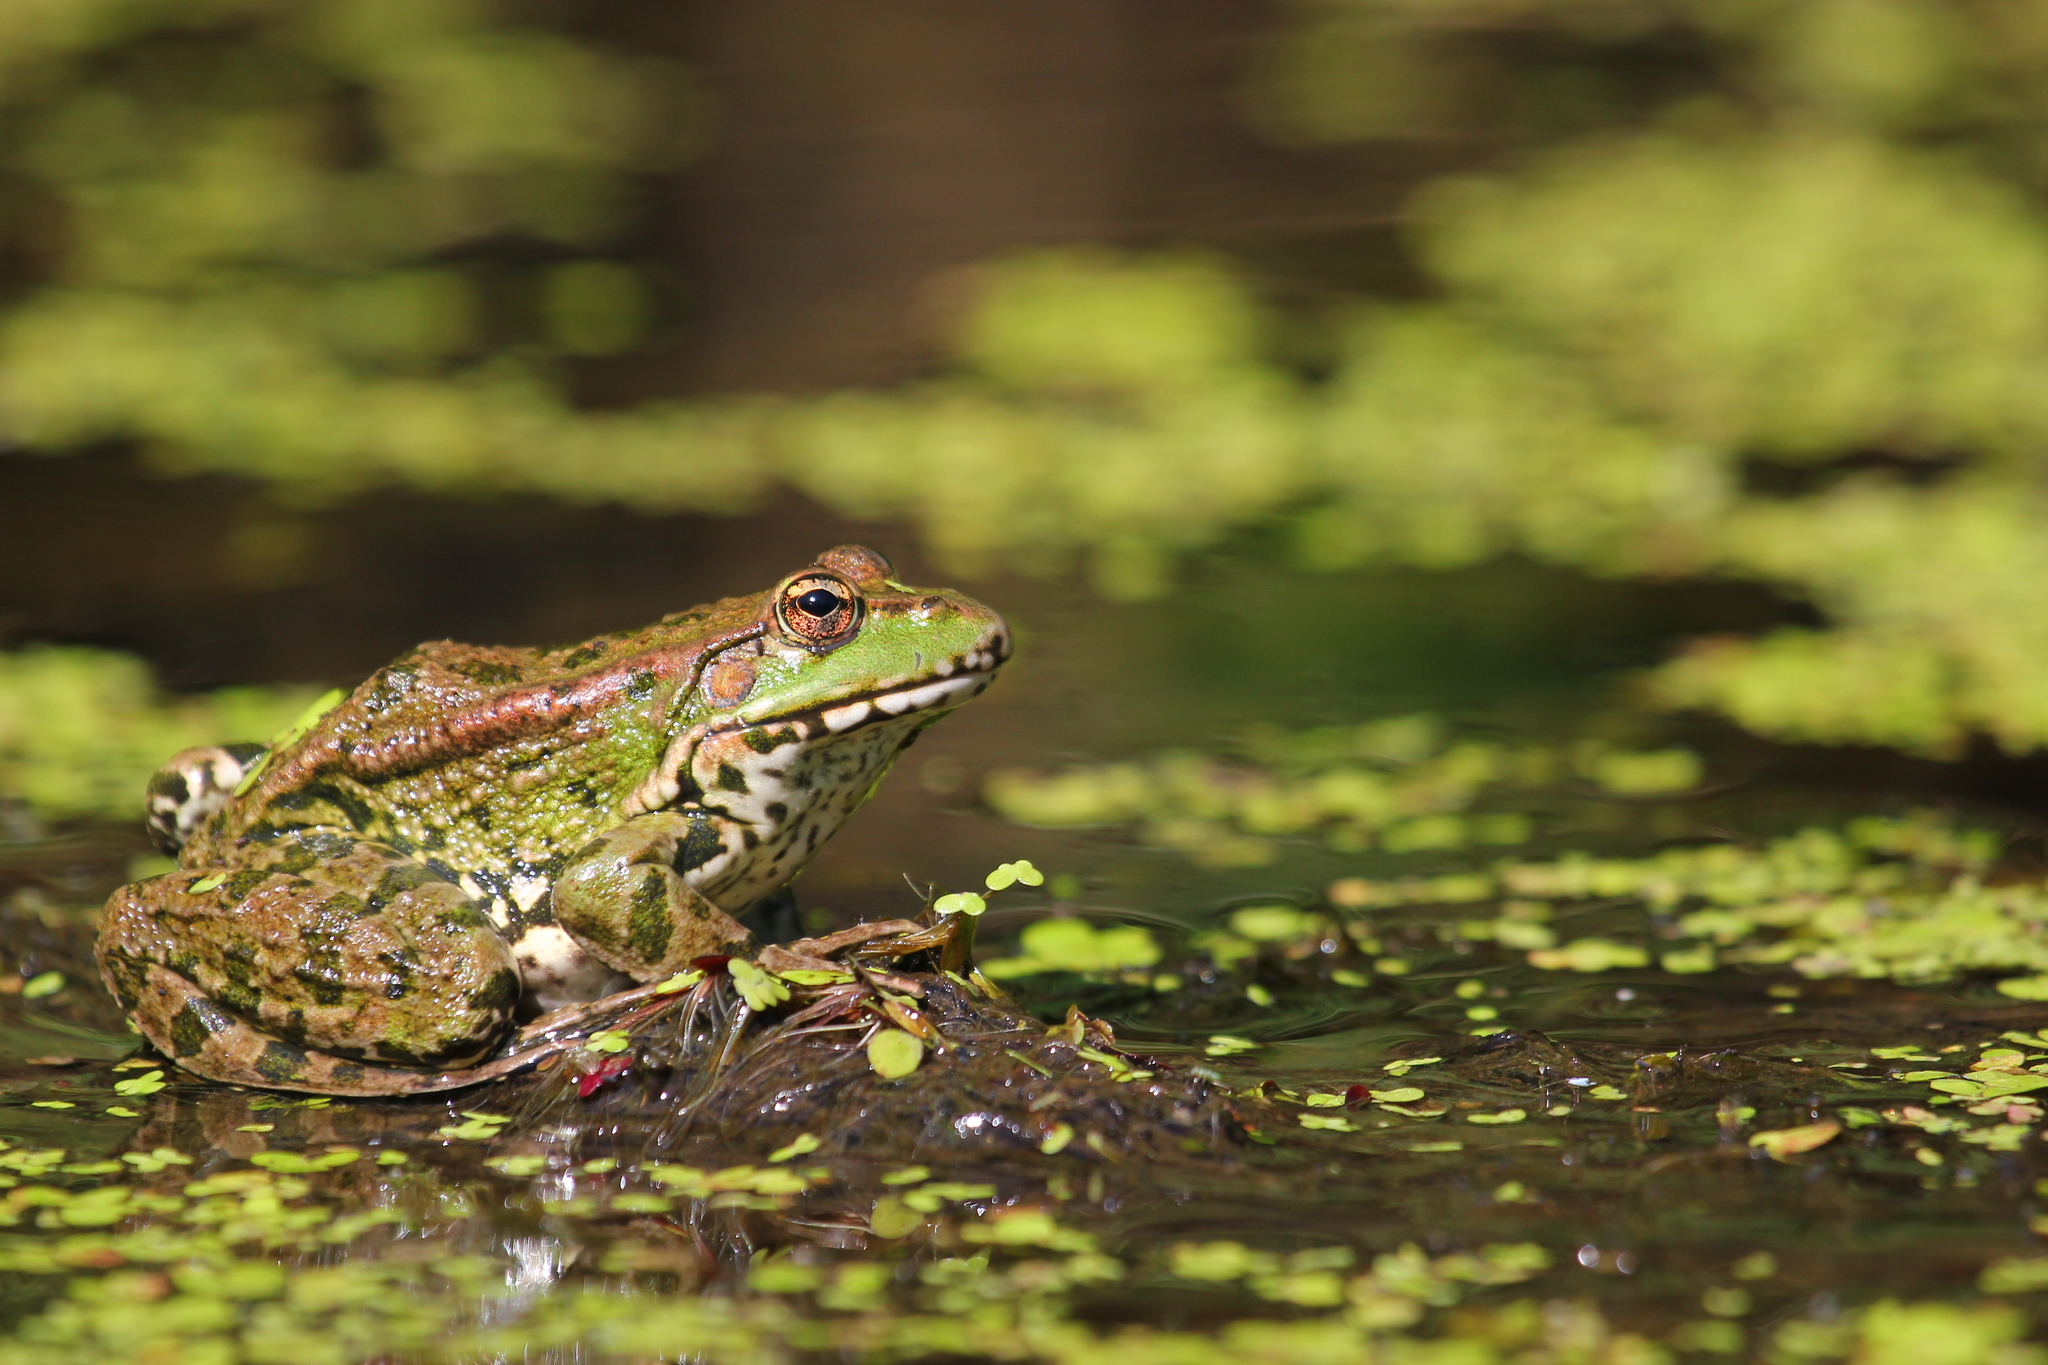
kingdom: Animalia
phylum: Chordata
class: Amphibia
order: Anura
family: Ranidae
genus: Pelophylax
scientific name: Pelophylax ridibundus
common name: Marsh frog
